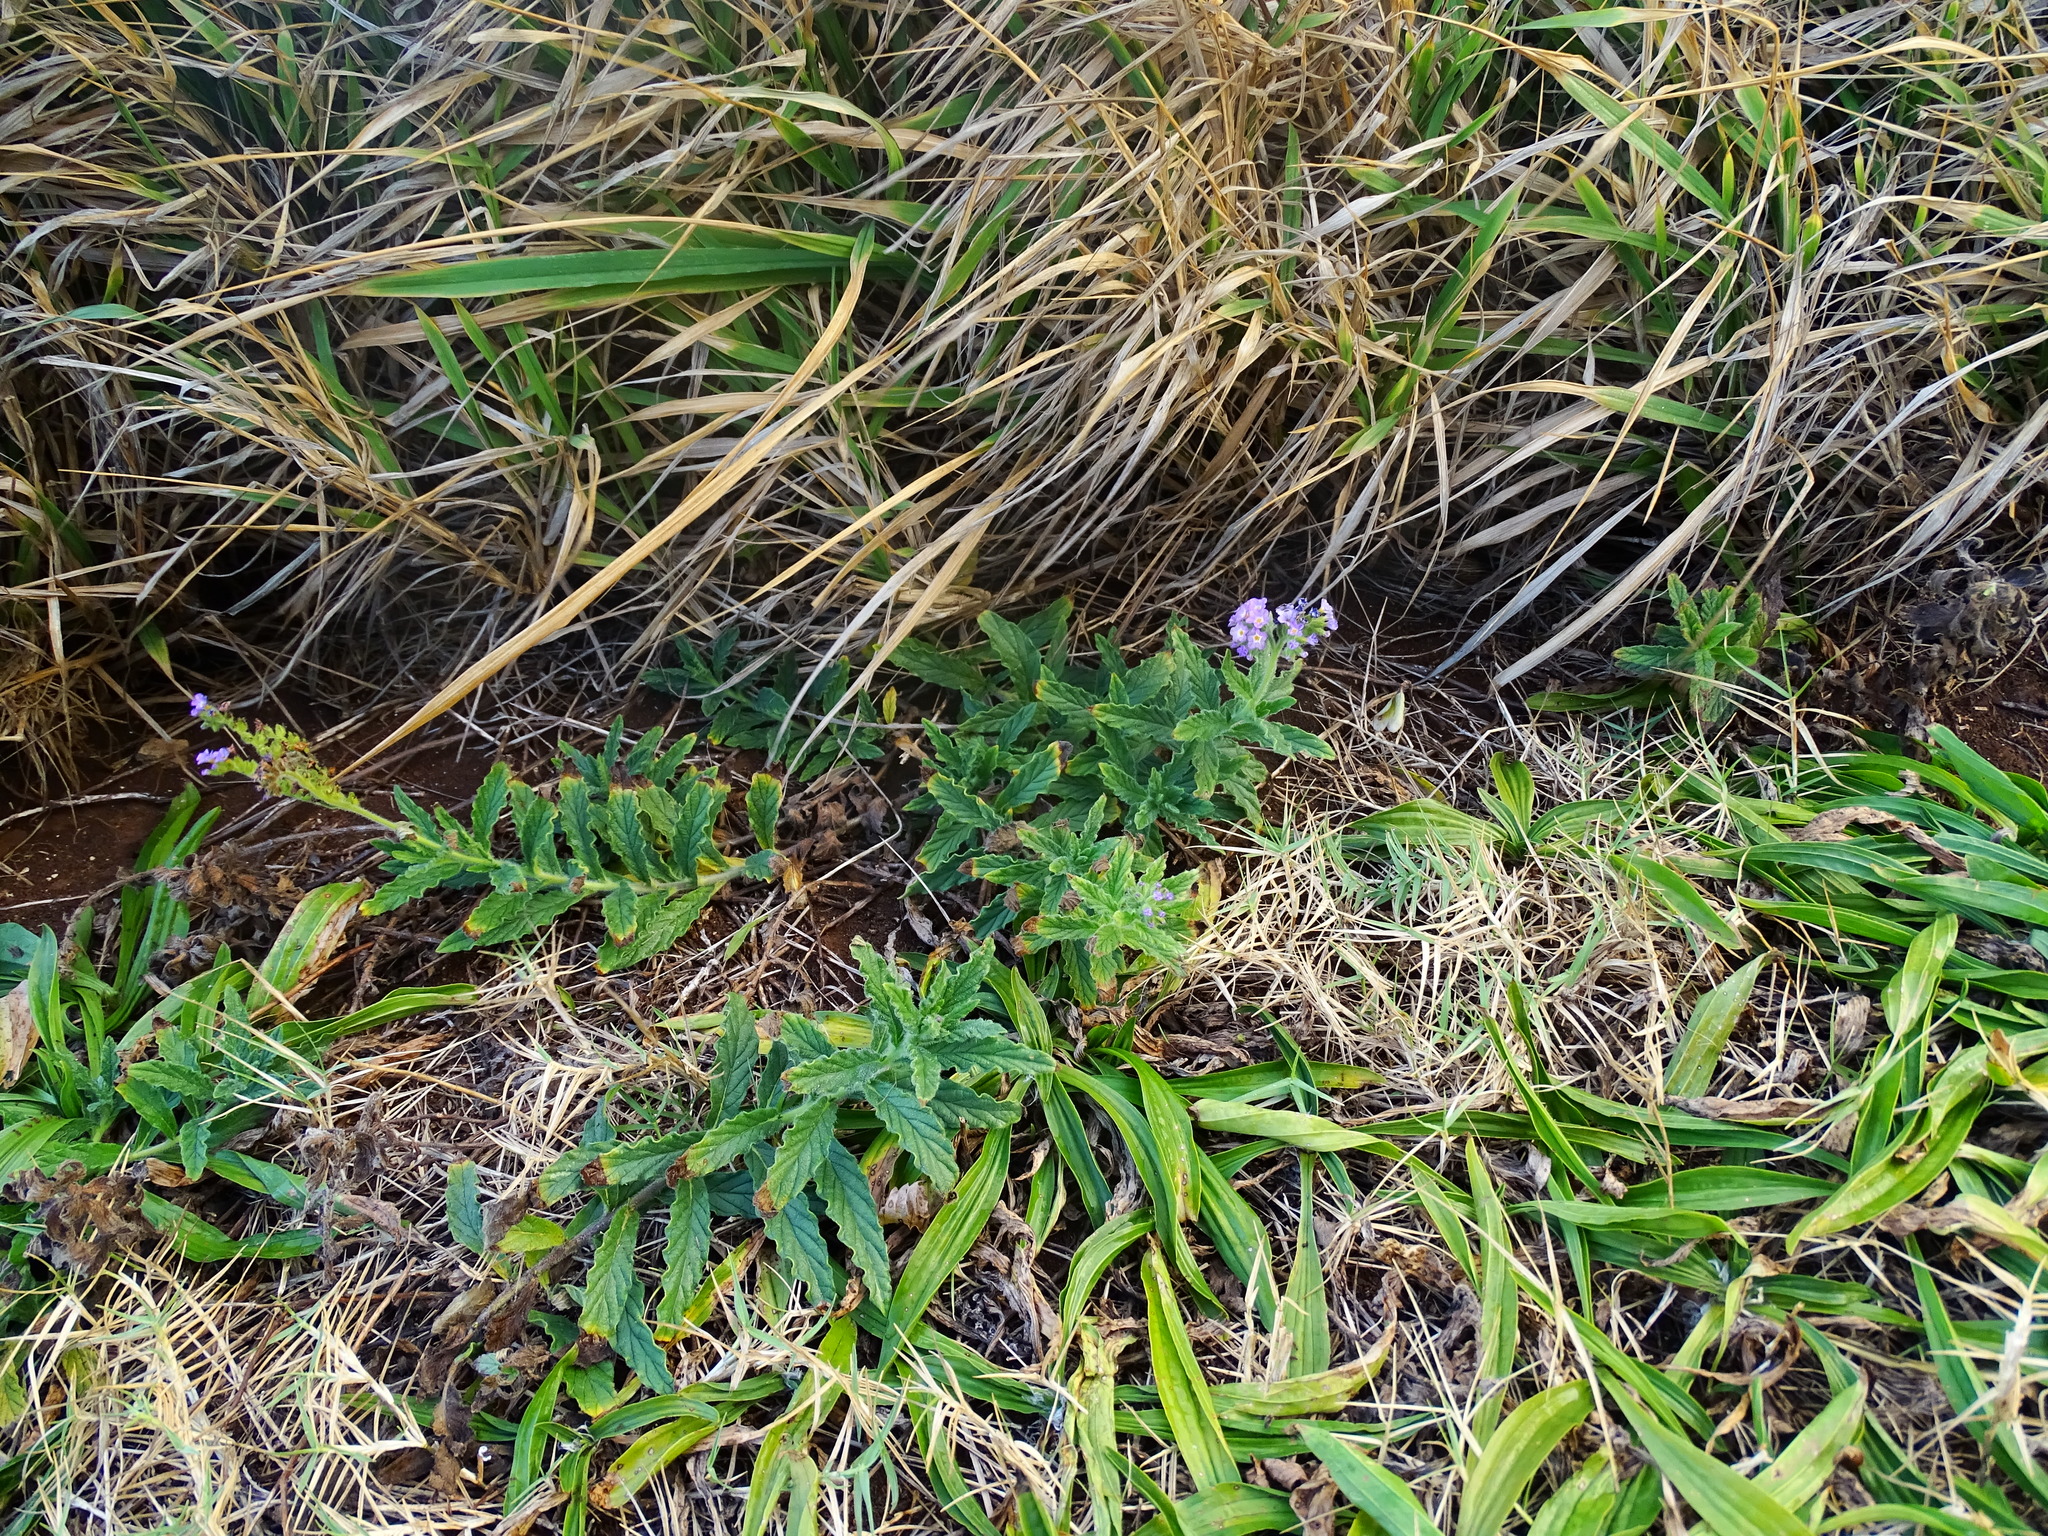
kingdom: Plantae
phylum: Tracheophyta
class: Magnoliopsida
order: Boraginales
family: Heliotropiaceae
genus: Heliotropium
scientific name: Heliotropium amplexicaule
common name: Clasping heliotrope
